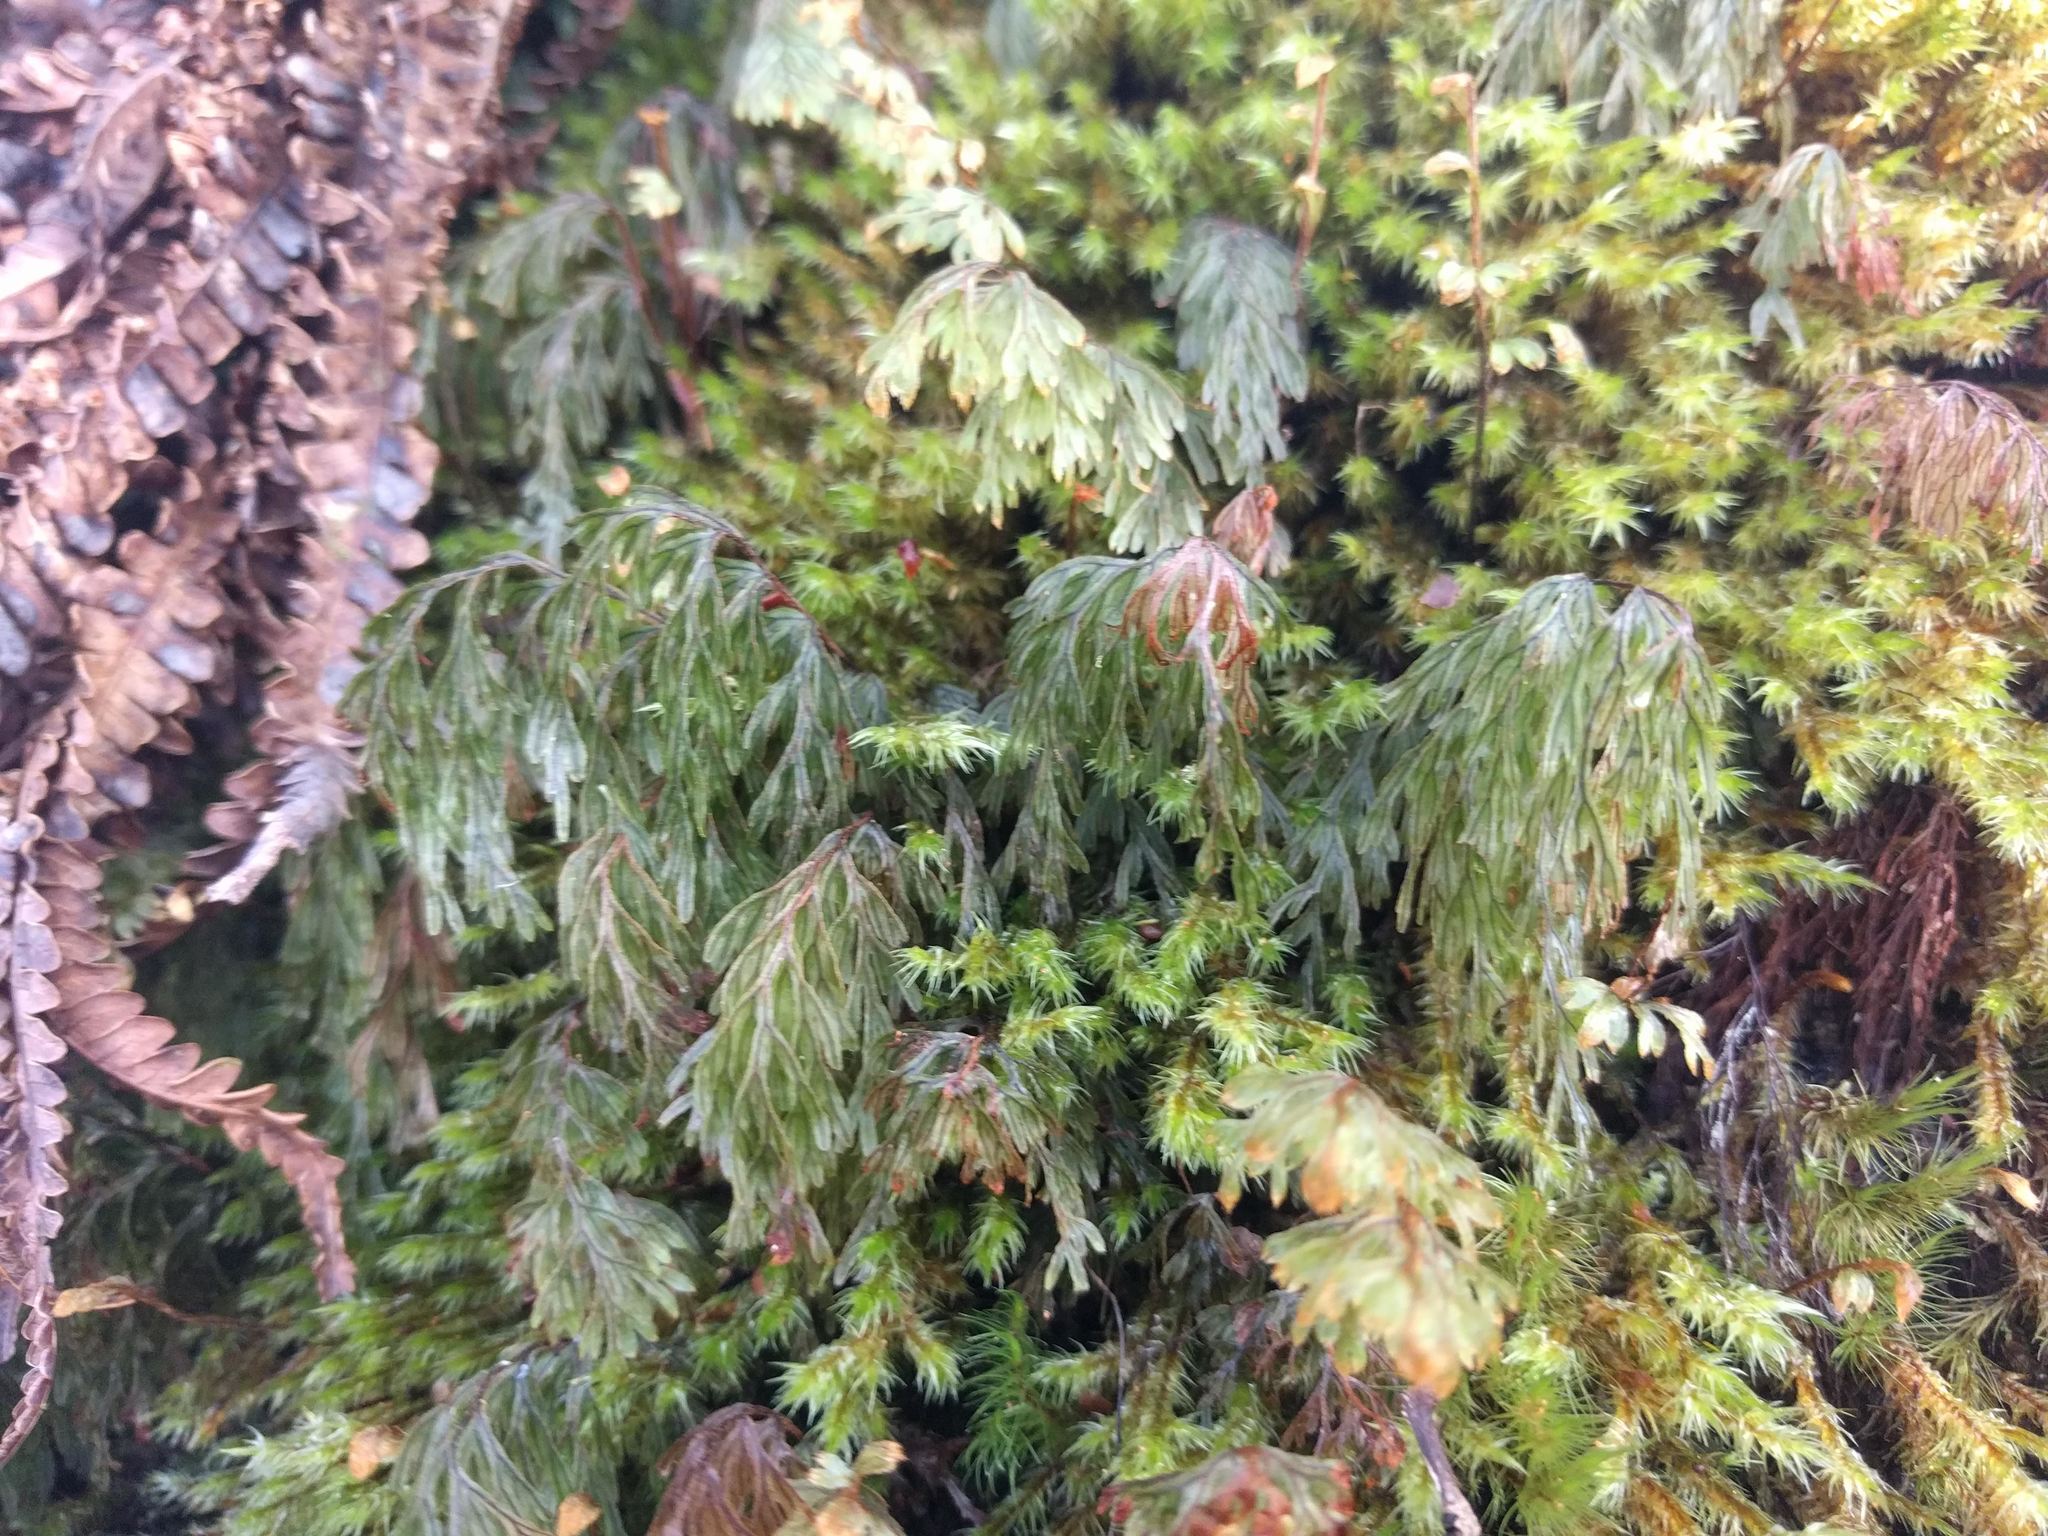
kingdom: Plantae
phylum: Tracheophyta
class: Polypodiopsida
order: Hymenophyllales
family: Hymenophyllaceae
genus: Hymenophyllum
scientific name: Hymenophyllum lanceolatum
